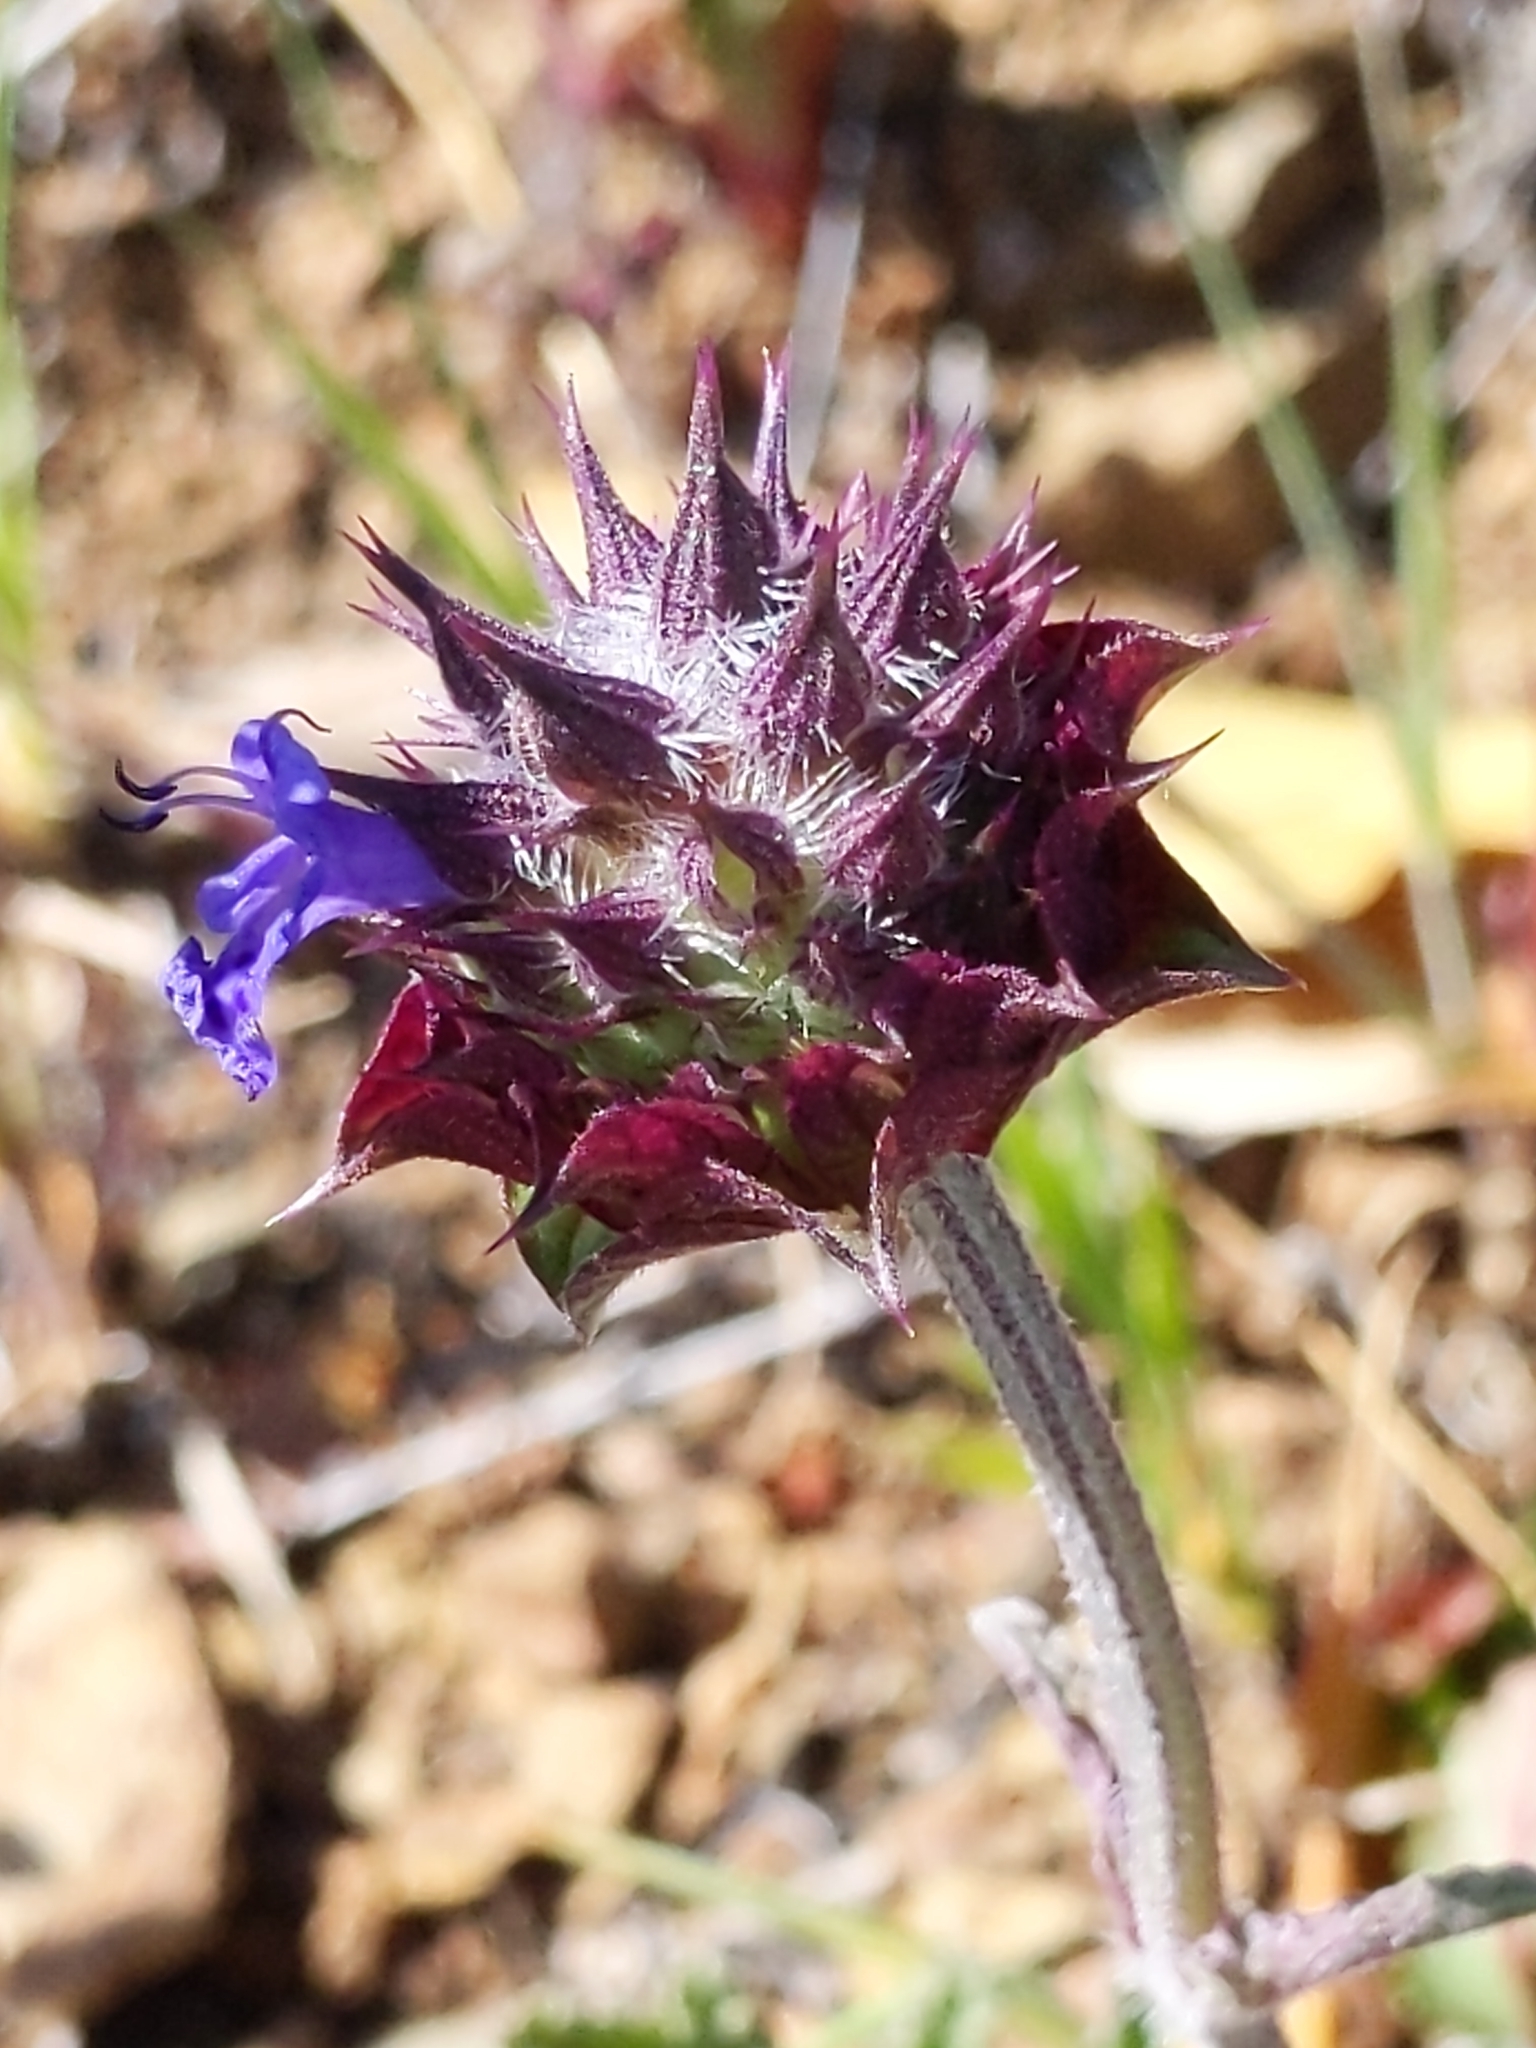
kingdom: Plantae
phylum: Tracheophyta
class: Magnoliopsida
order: Lamiales
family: Lamiaceae
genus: Salvia
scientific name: Salvia columbariae
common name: Chia
